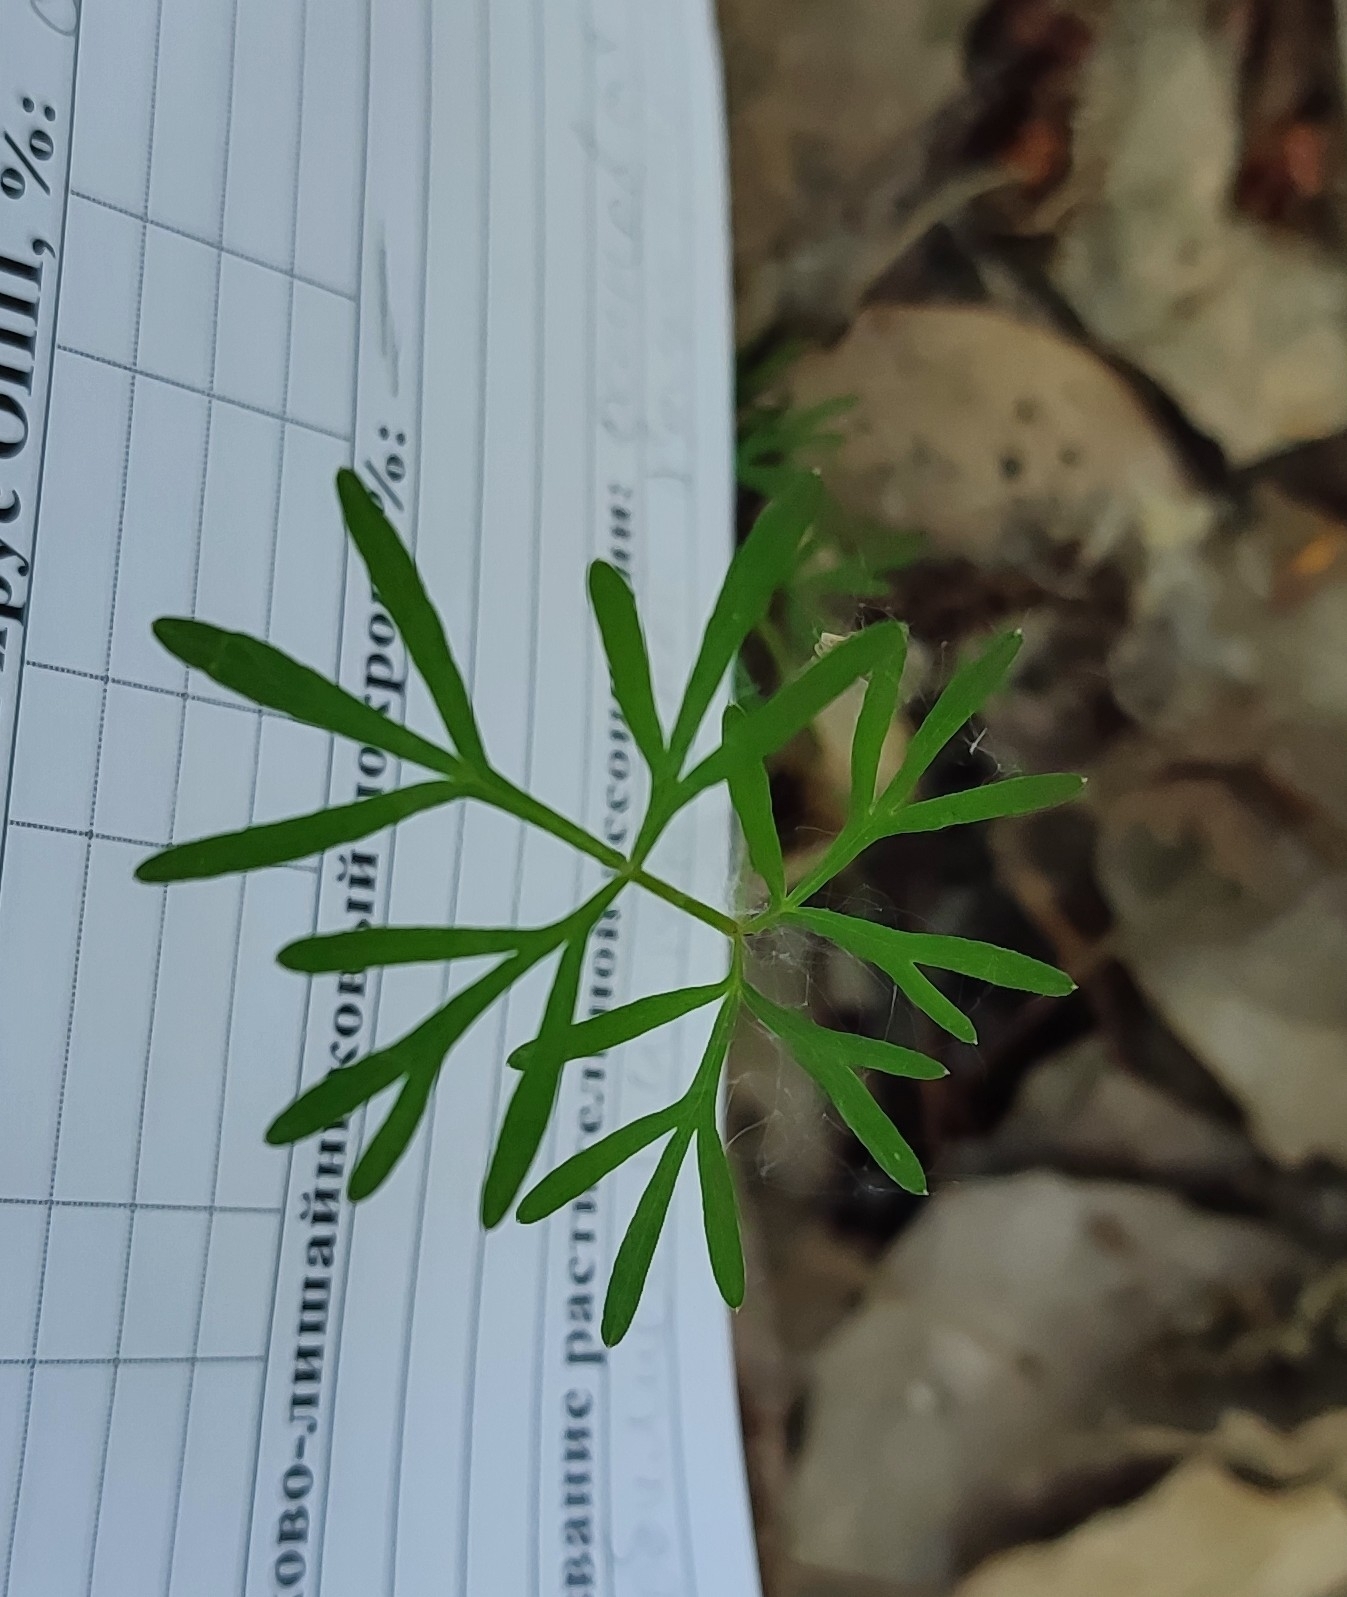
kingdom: Plantae
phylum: Tracheophyta
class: Magnoliopsida
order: Apiales
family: Apiaceae
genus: Kadenia
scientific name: Kadenia dubia
